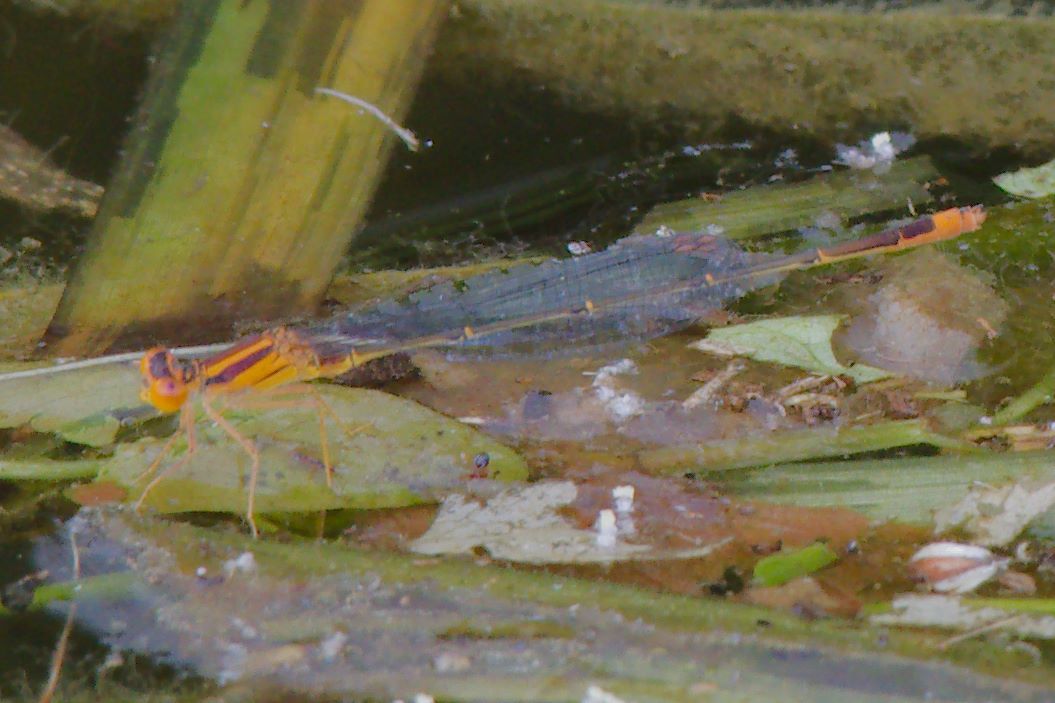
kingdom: Animalia
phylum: Arthropoda
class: Insecta
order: Odonata
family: Coenagrionidae
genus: Enallagma
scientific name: Enallagma pollutum
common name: Florida bluet
